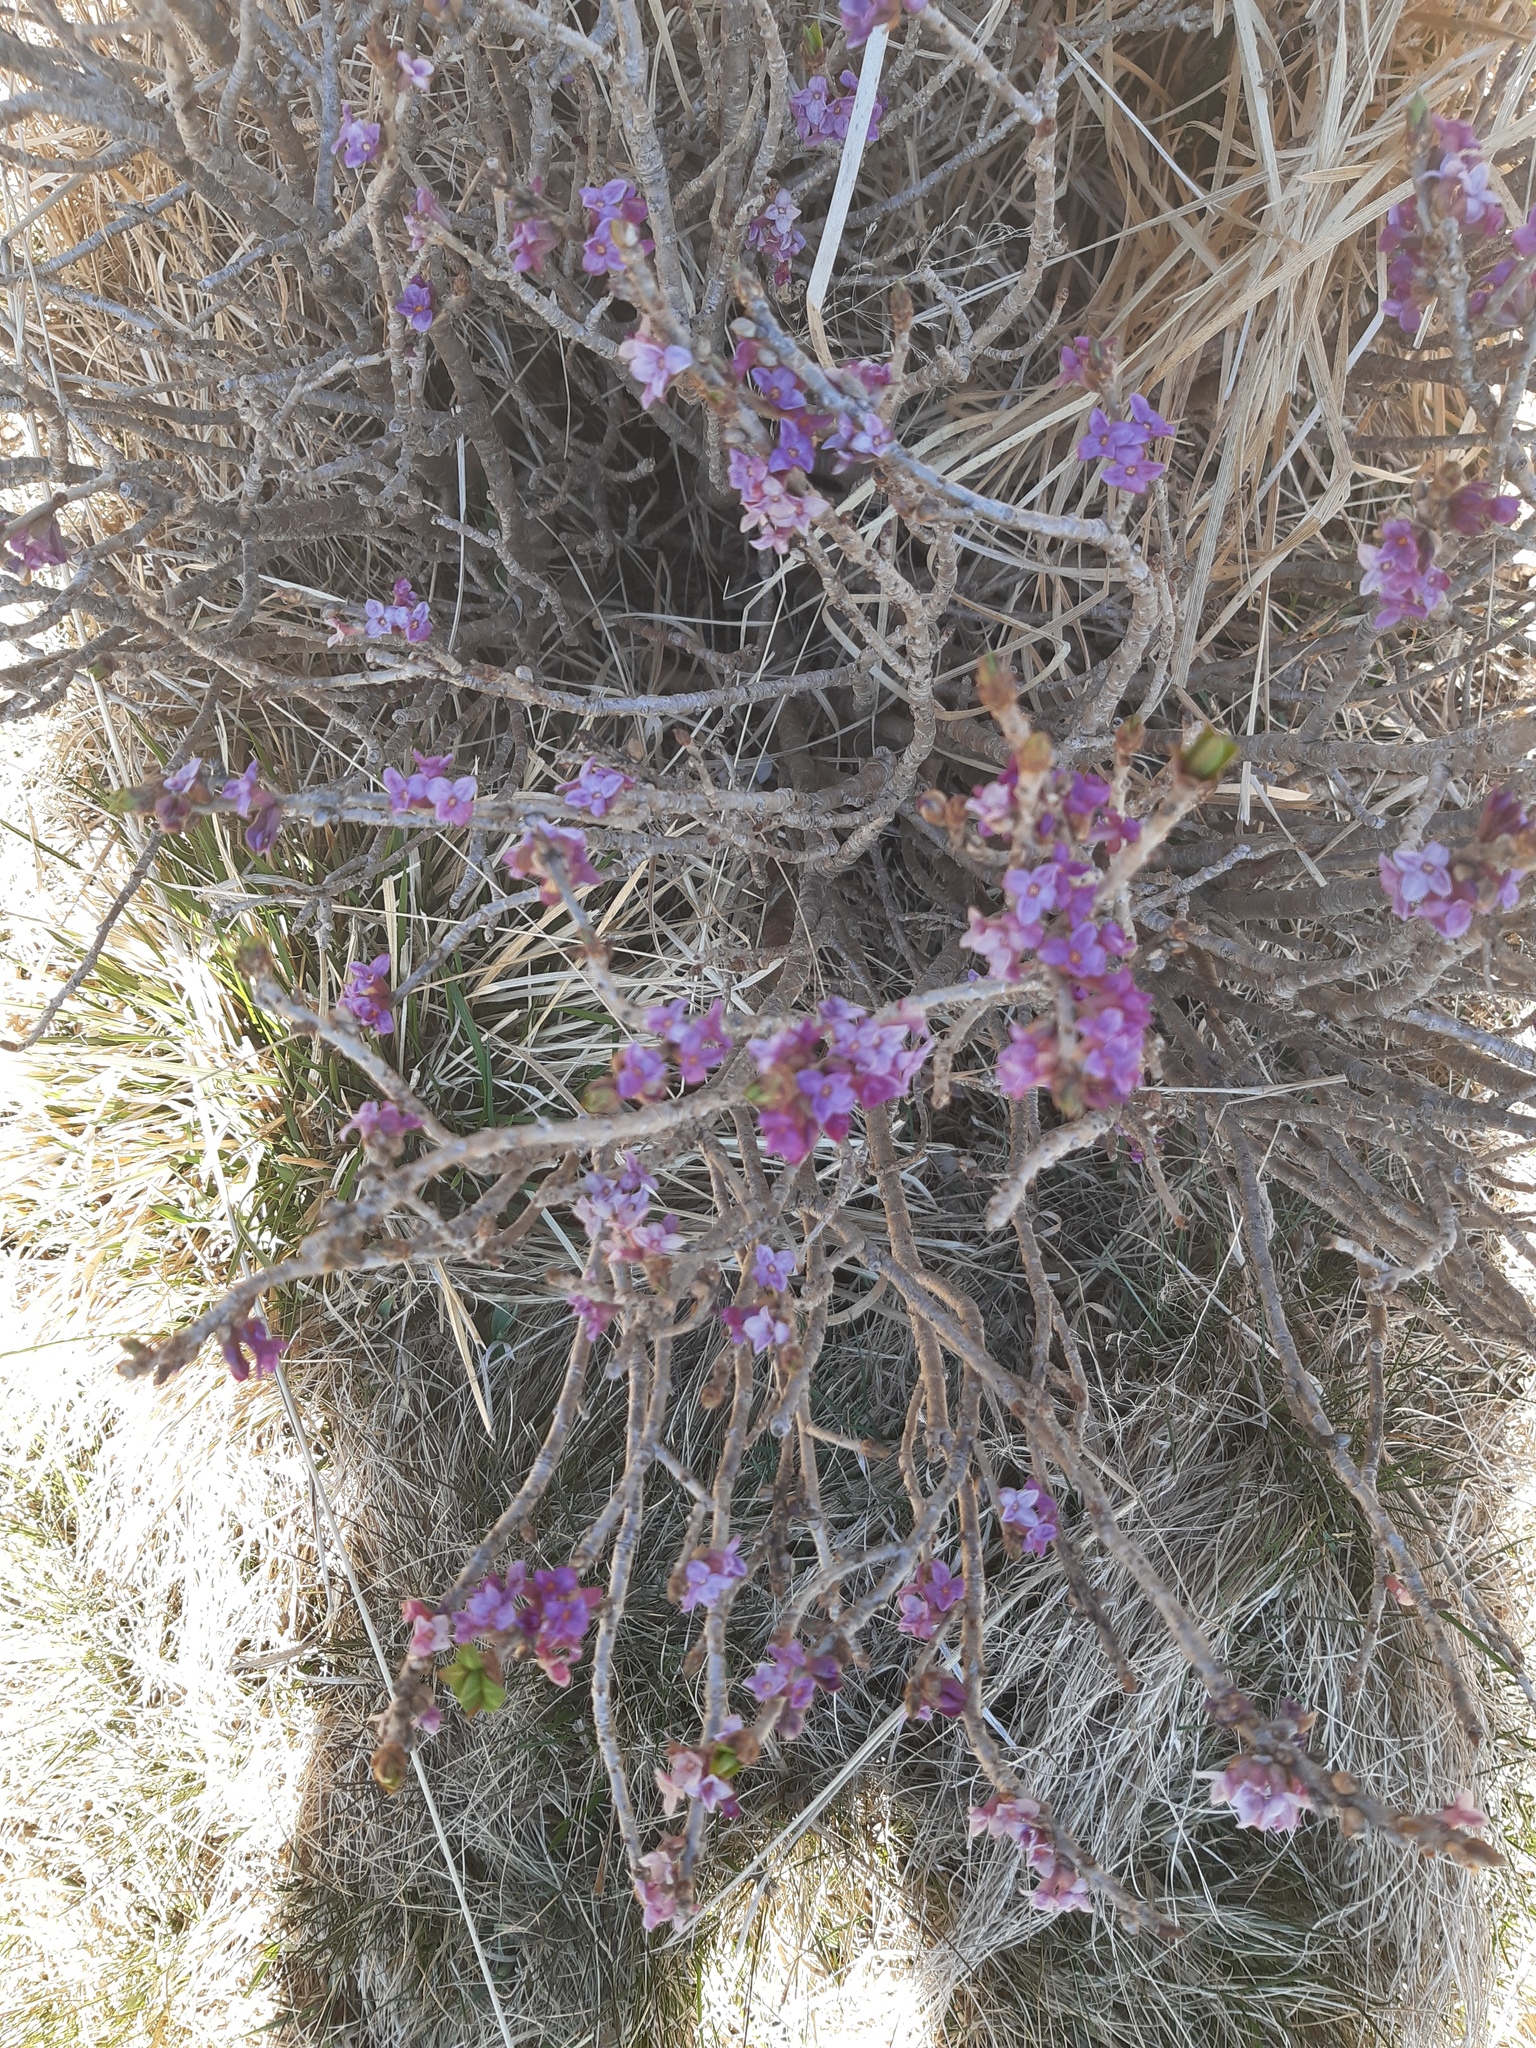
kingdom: Plantae
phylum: Tracheophyta
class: Magnoliopsida
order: Malvales
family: Thymelaeaceae
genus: Daphne
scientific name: Daphne mezereum
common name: Mezereon
